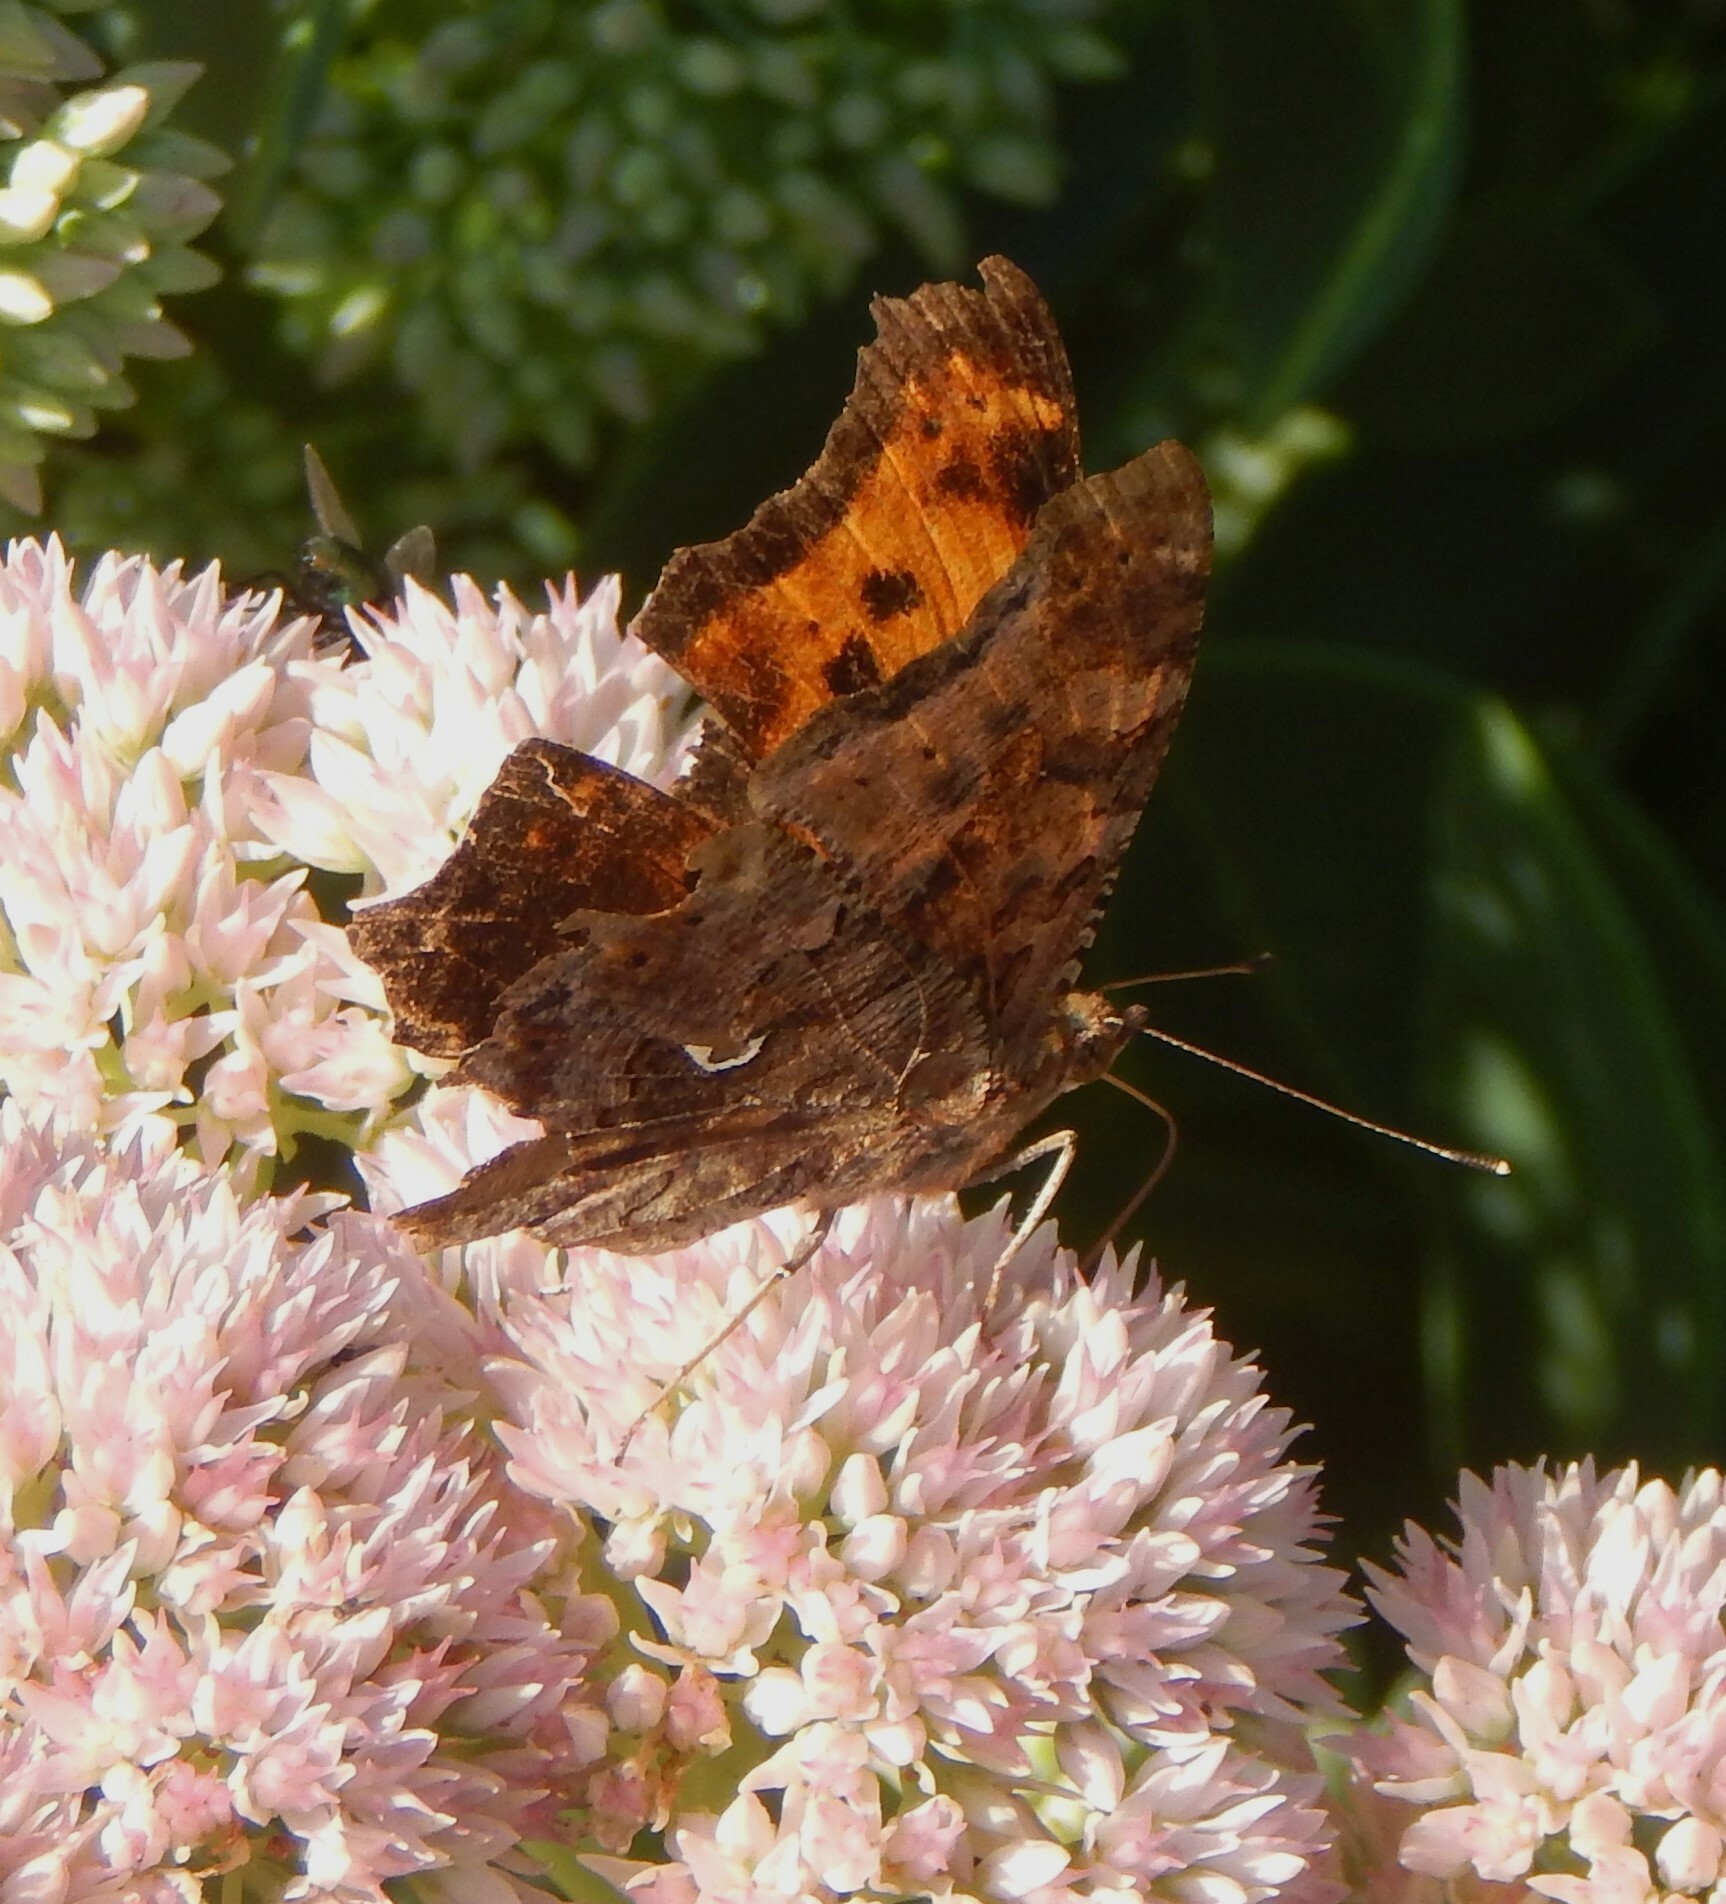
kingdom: Animalia
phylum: Arthropoda
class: Insecta
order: Lepidoptera
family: Nymphalidae
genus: Polygonia
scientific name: Polygonia comma
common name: Eastern comma
